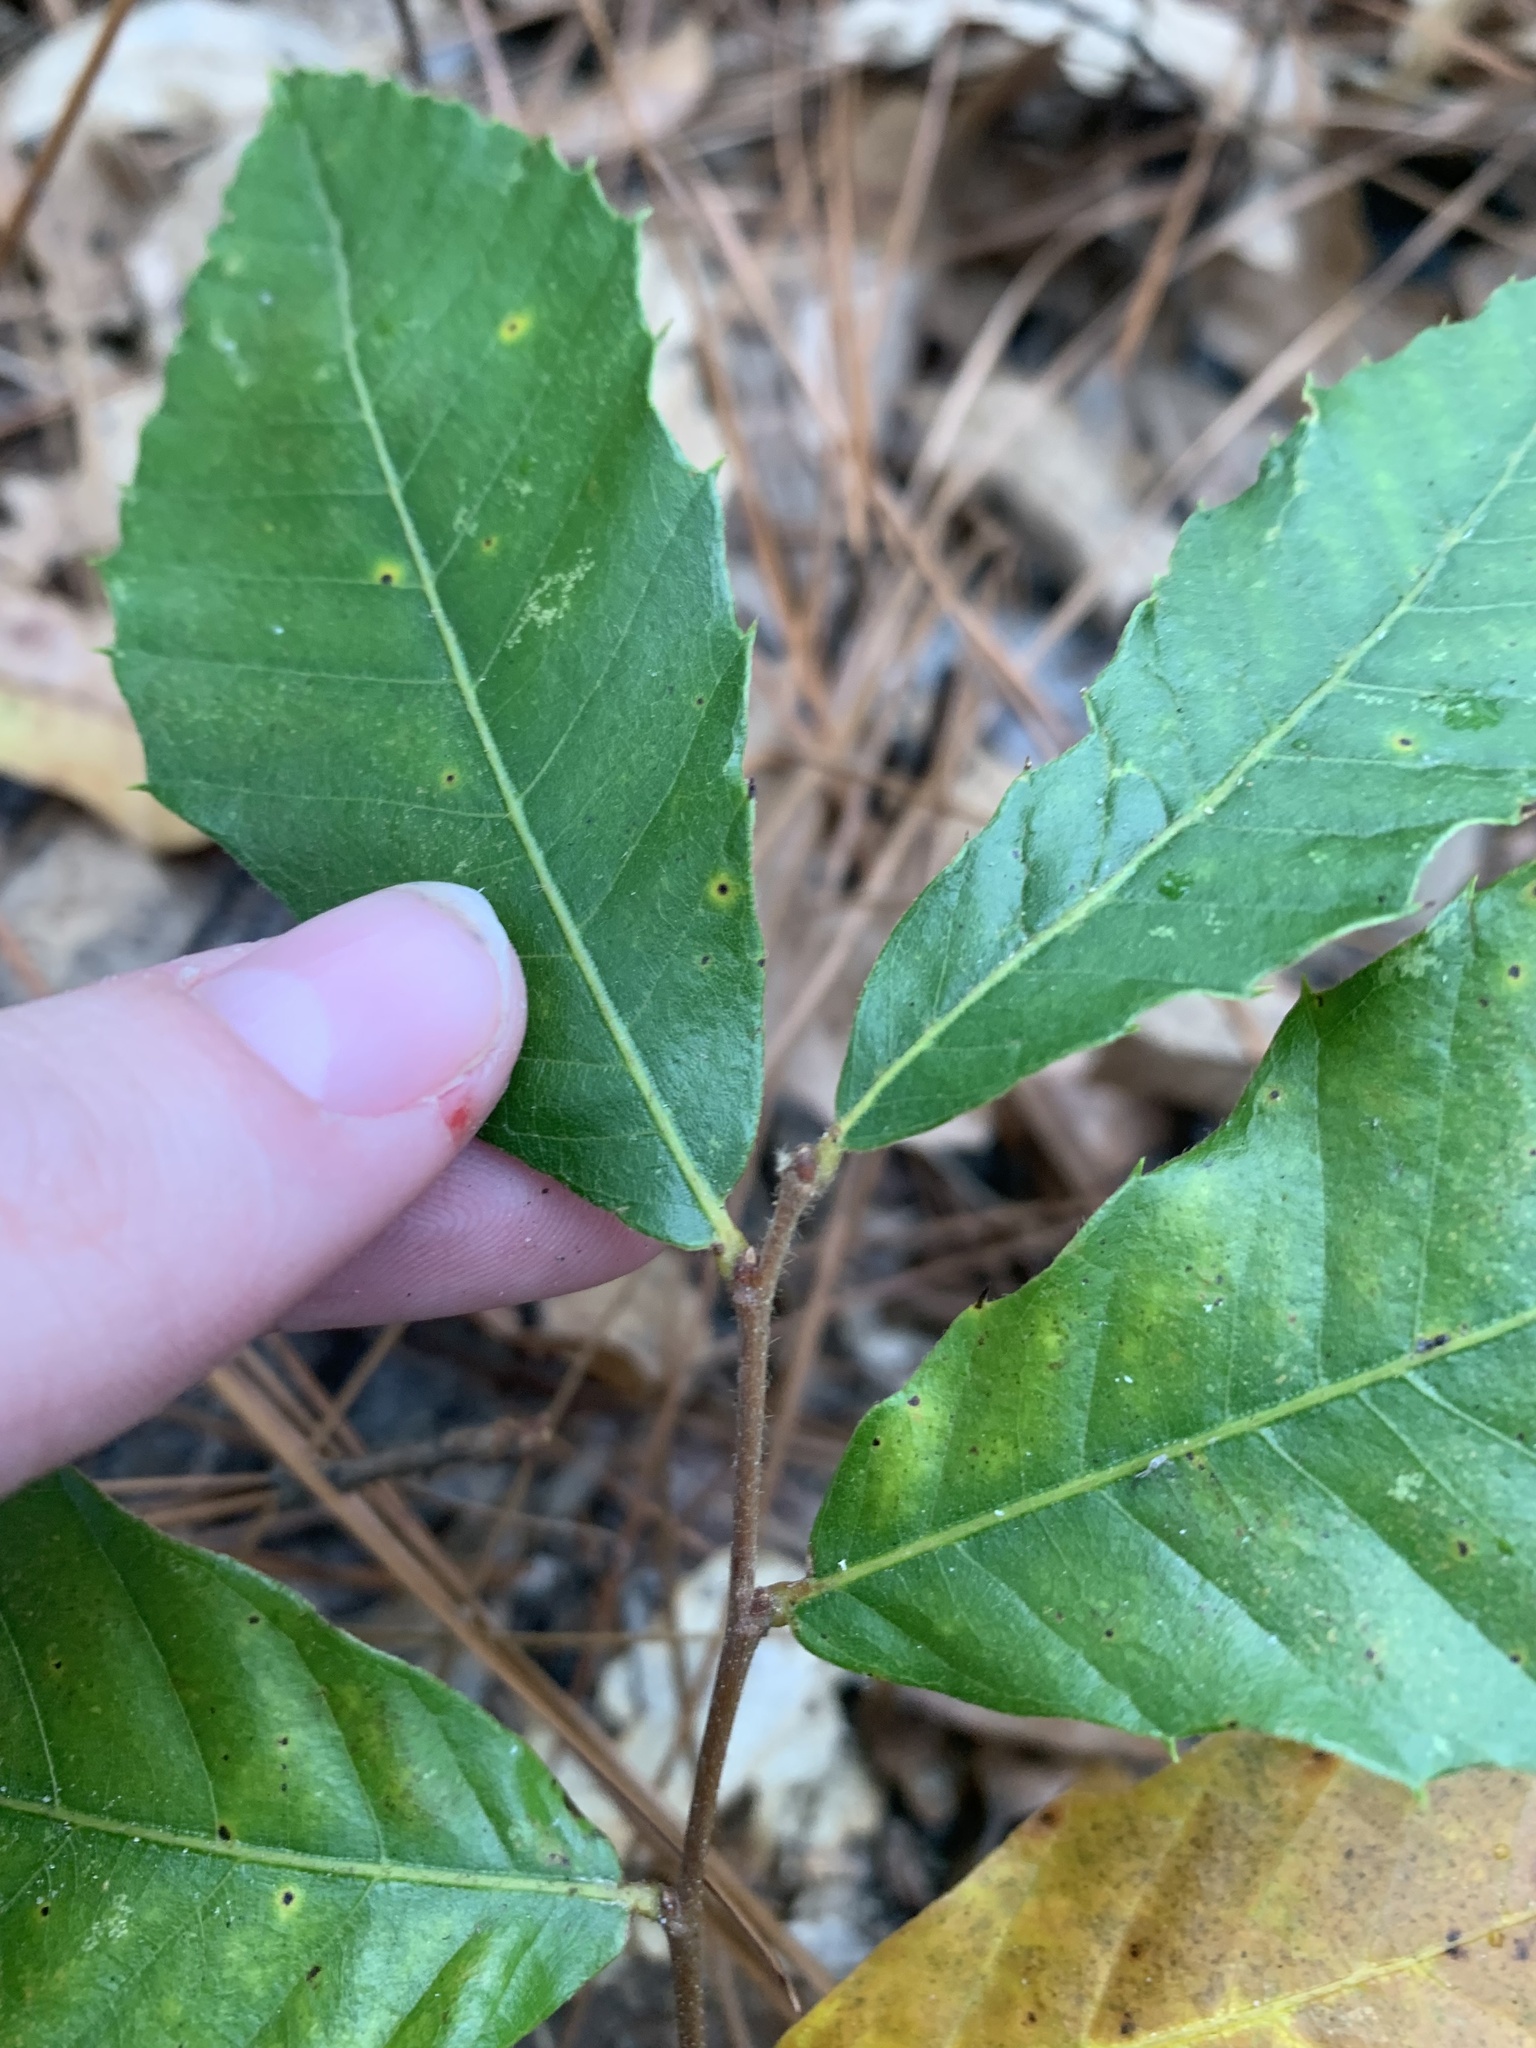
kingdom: Plantae
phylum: Tracheophyta
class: Magnoliopsida
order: Fagales
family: Fagaceae
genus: Castanea
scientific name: Castanea pumila
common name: Chinkapin
